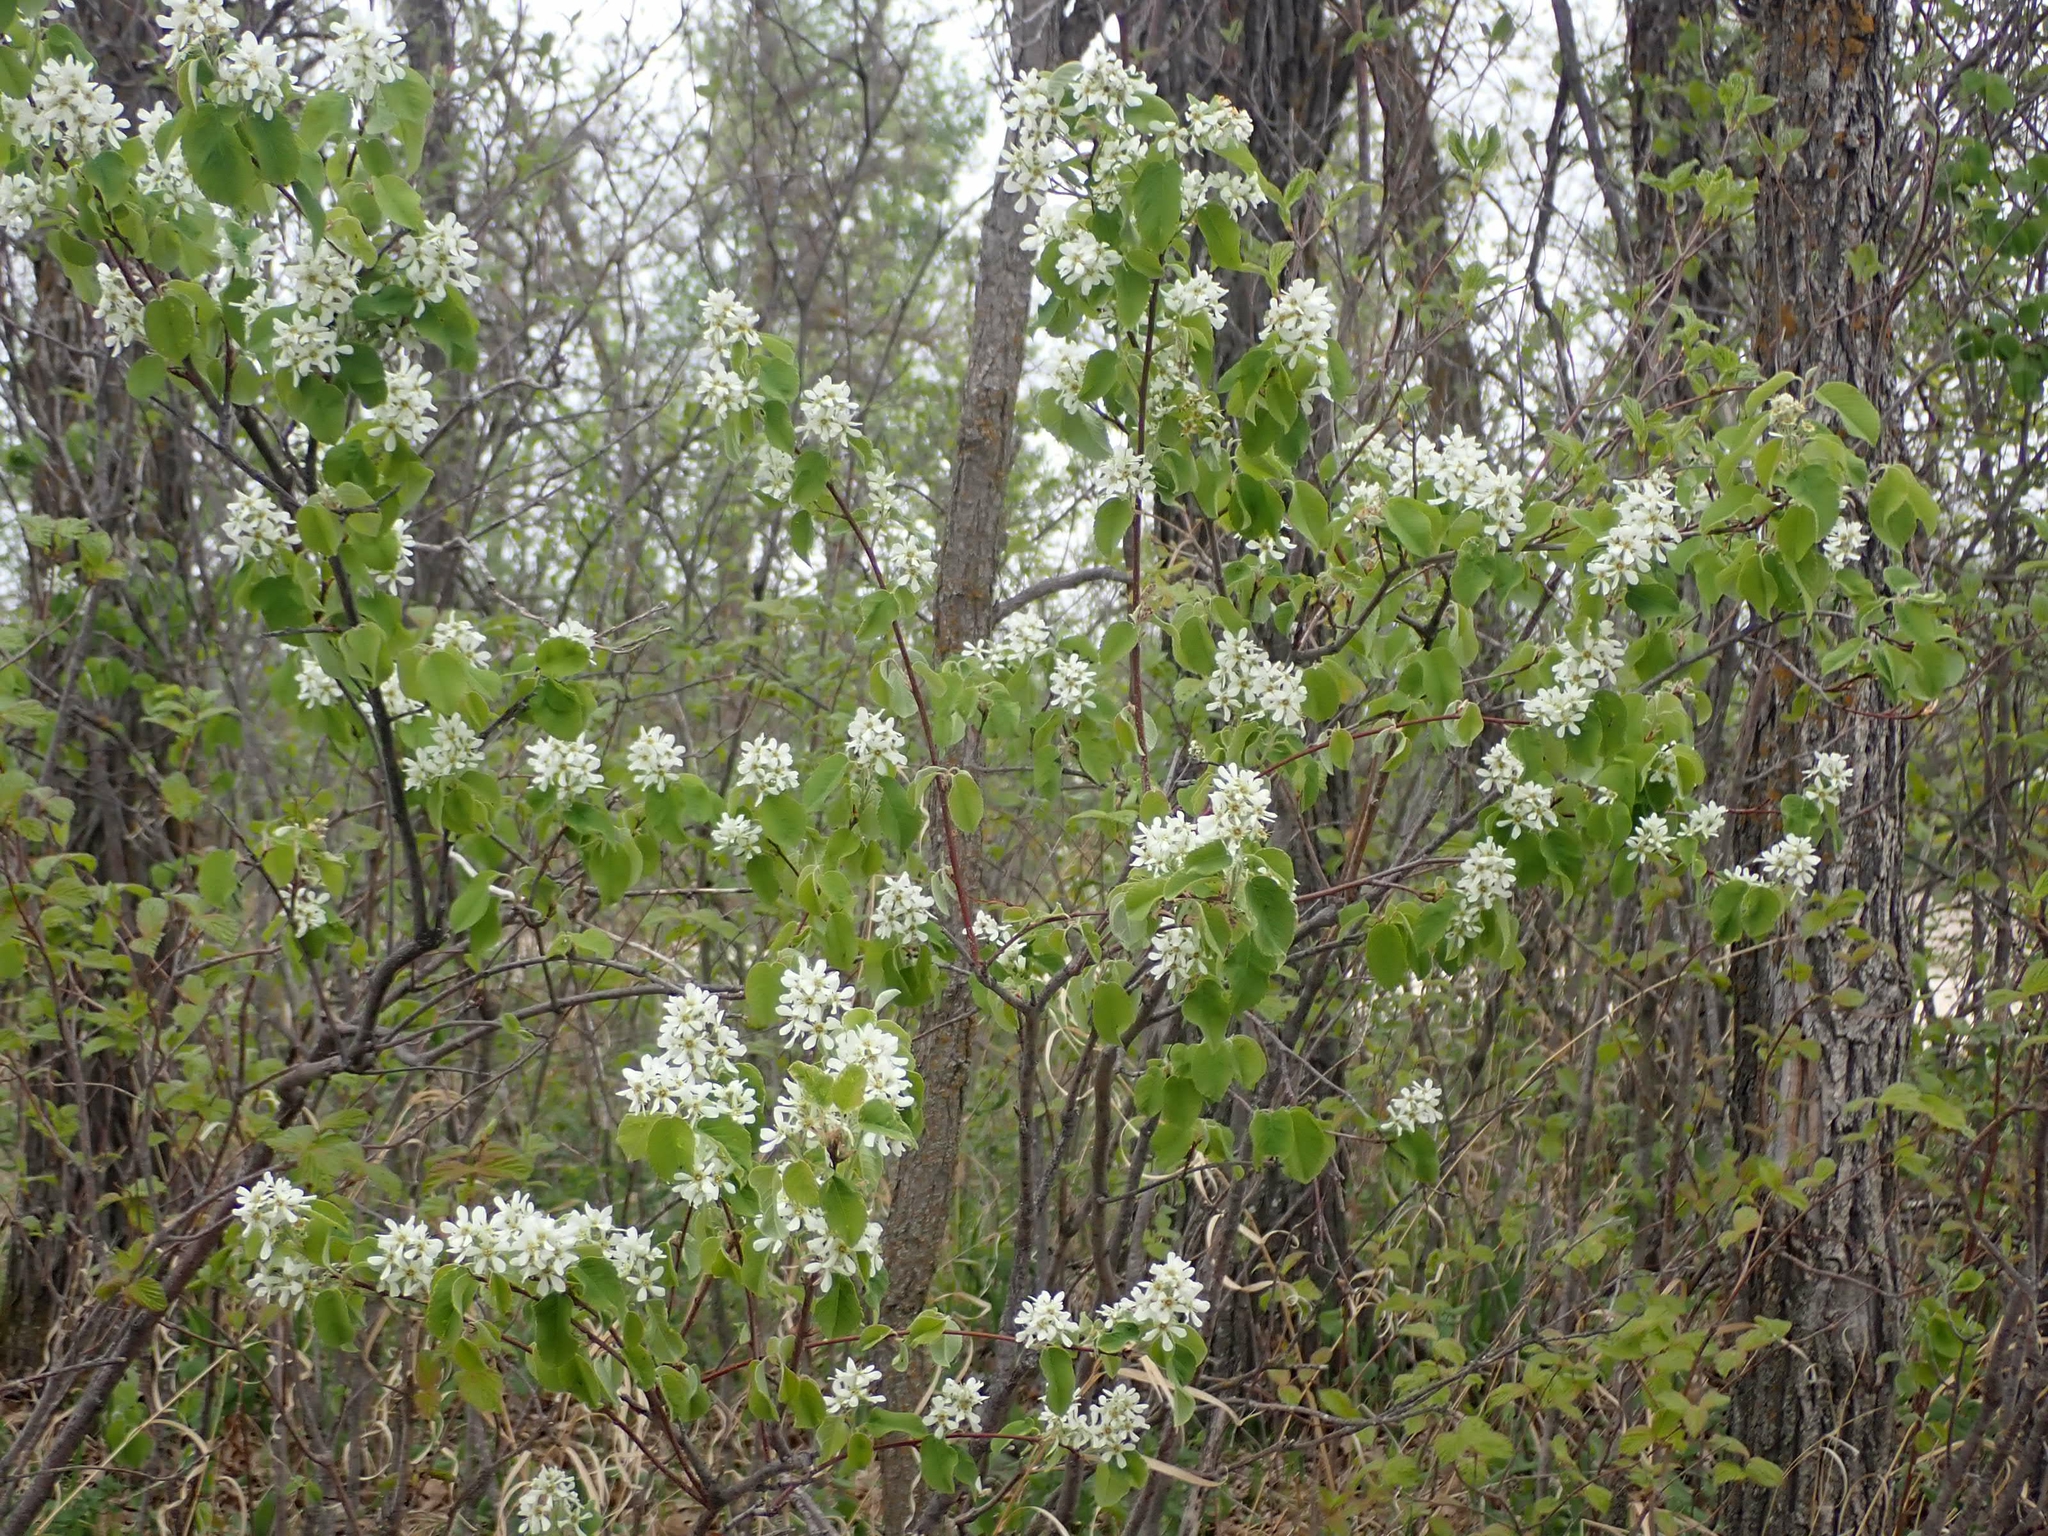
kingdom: Plantae
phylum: Tracheophyta
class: Magnoliopsida
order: Rosales
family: Rosaceae
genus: Amelanchier
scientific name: Amelanchier alnifolia
